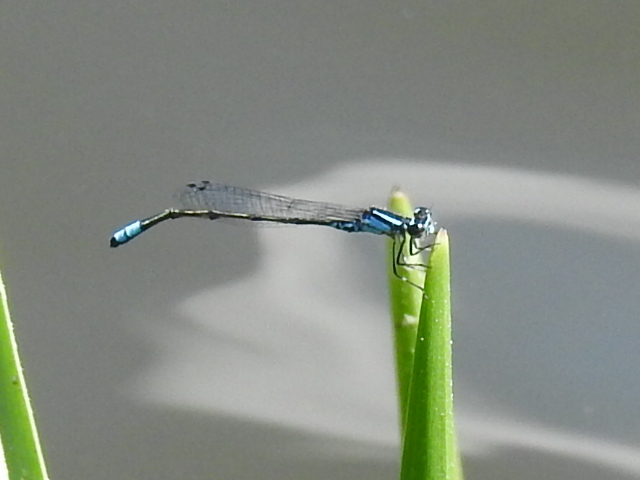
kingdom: Animalia
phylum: Arthropoda
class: Insecta
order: Odonata
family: Coenagrionidae
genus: Enallagma
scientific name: Enallagma geminatum
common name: Skimming bluet
